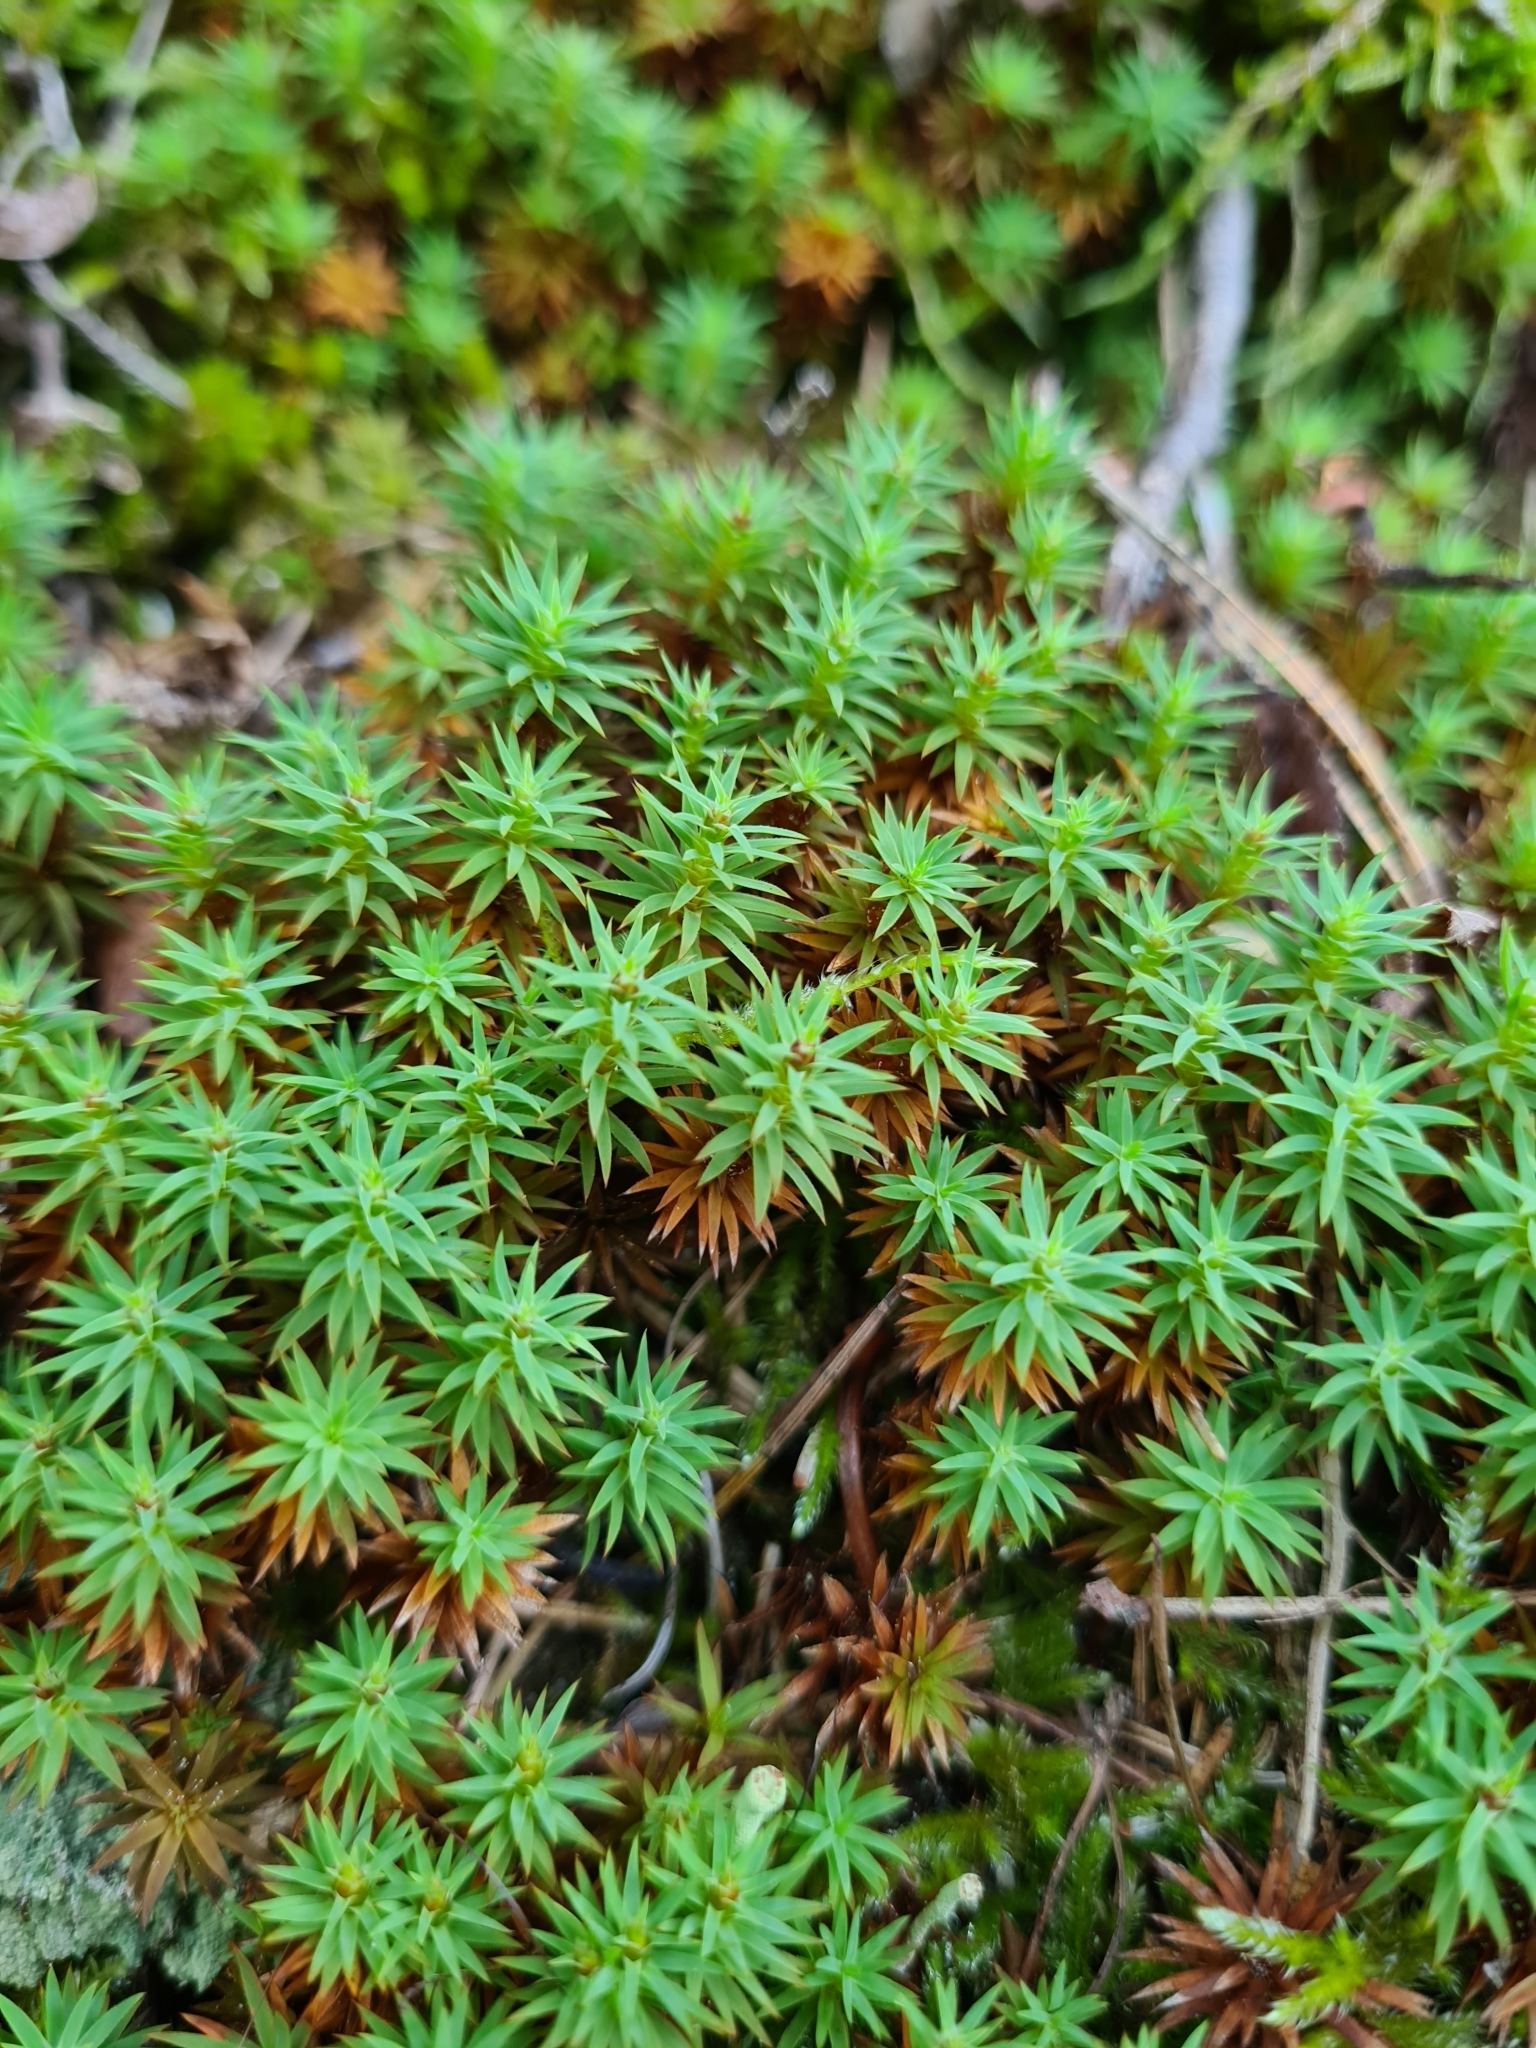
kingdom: Plantae
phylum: Bryophyta
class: Polytrichopsida
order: Polytrichales
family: Polytrichaceae
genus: Pogonatum
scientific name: Pogonatum urnigerum
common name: Urn hair moss
